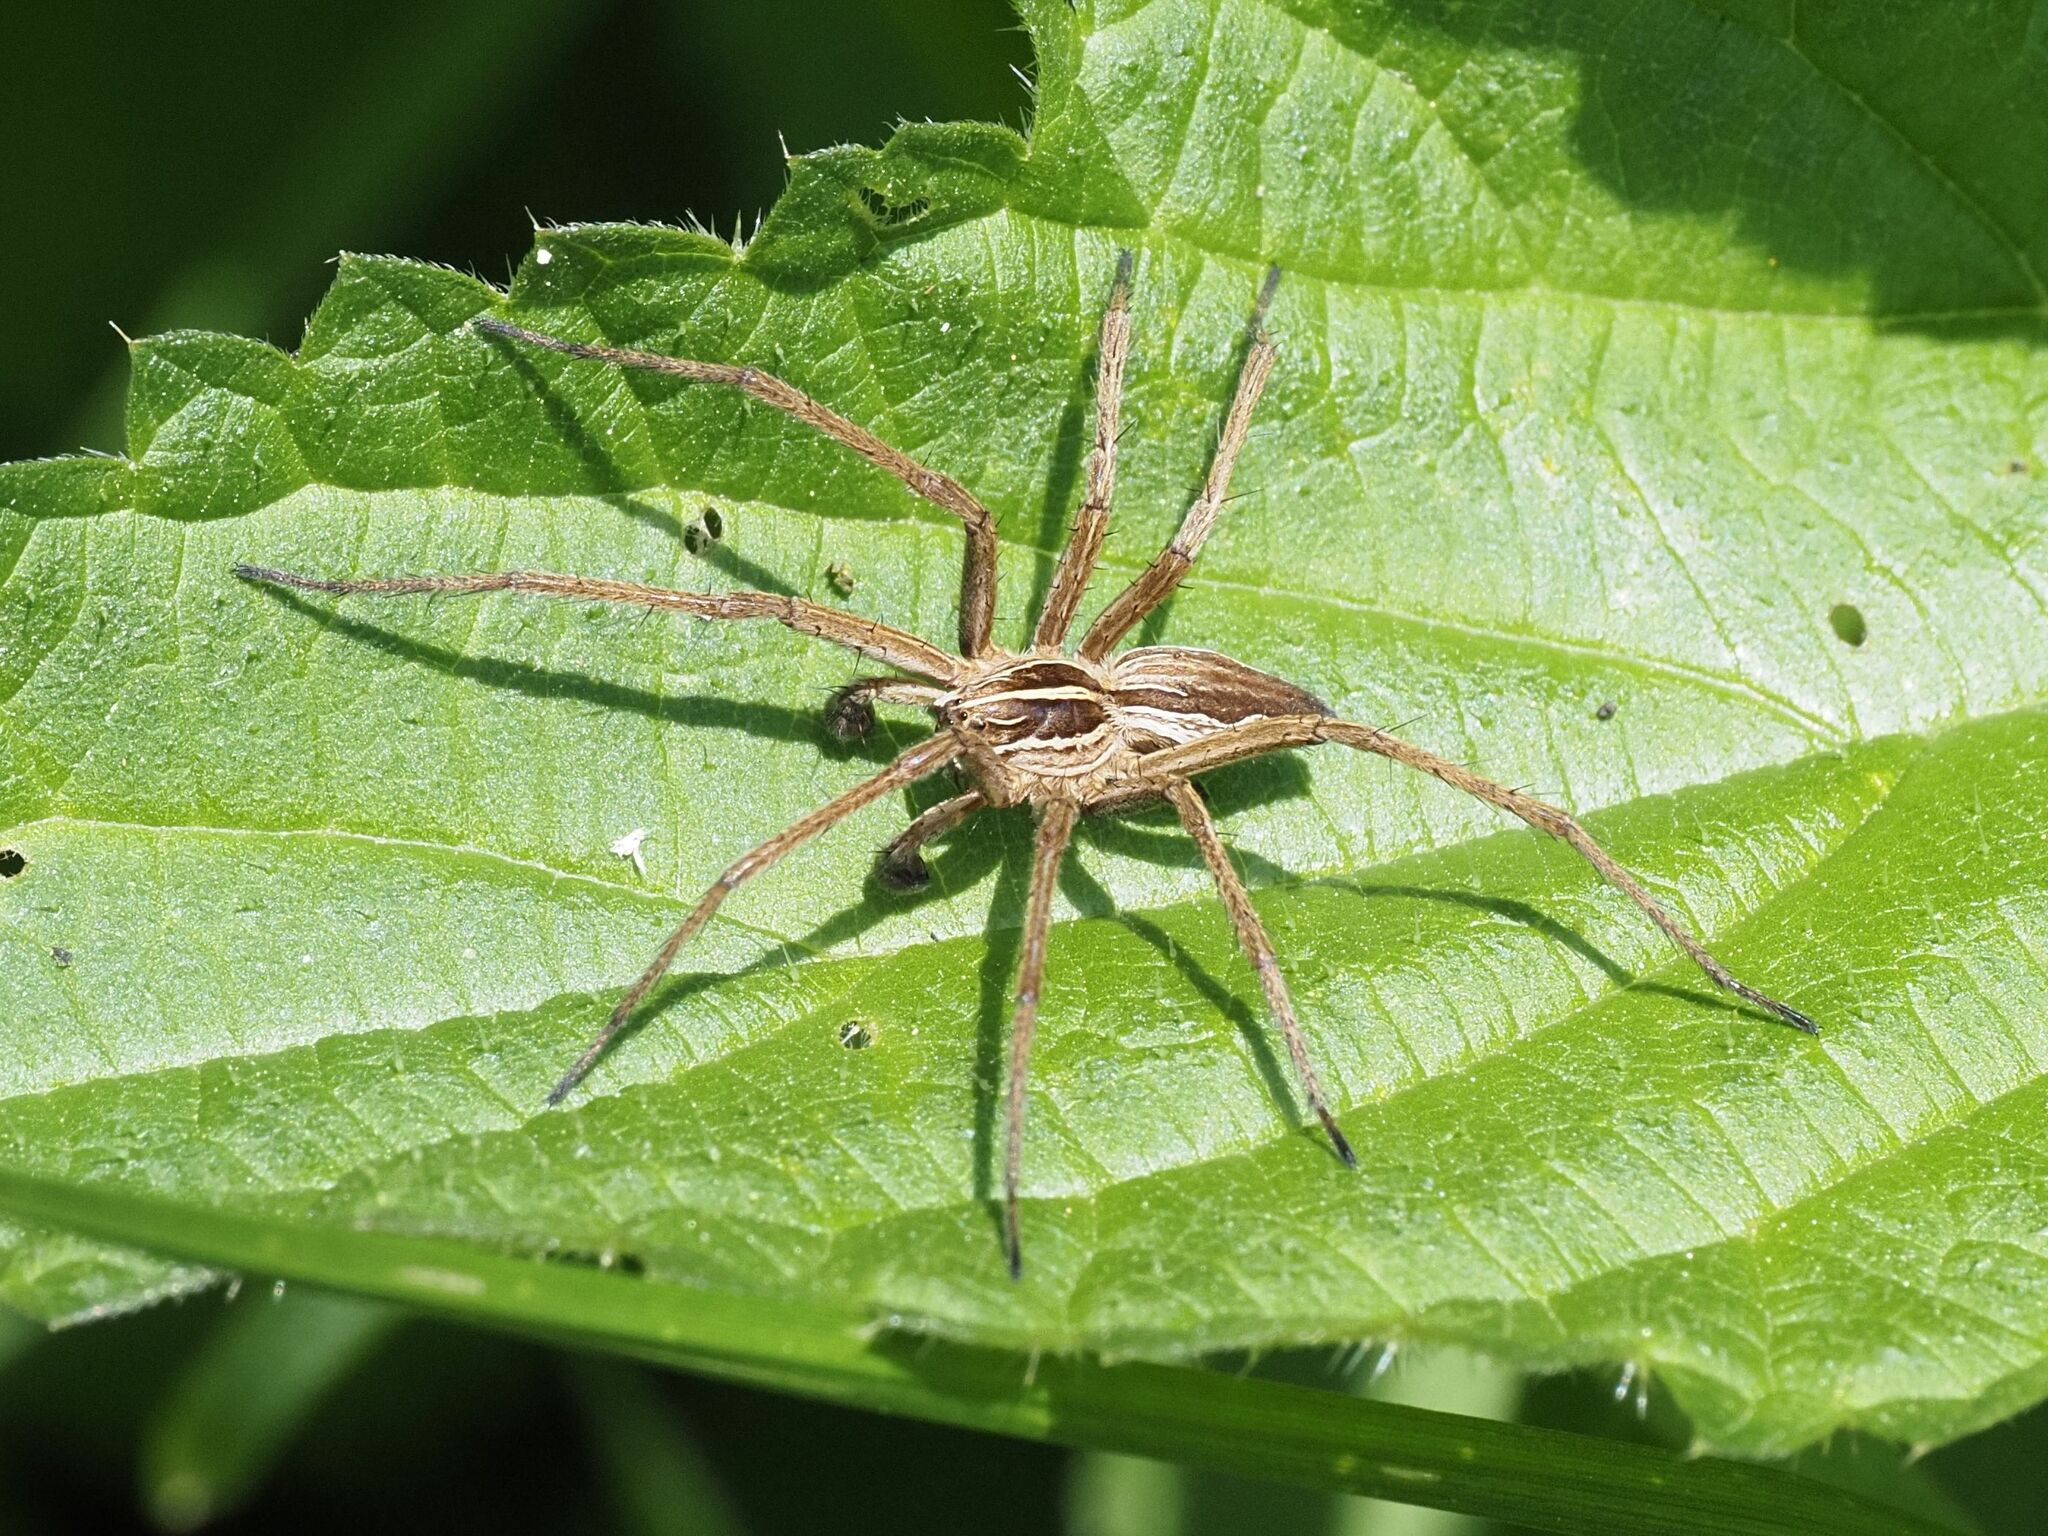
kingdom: Animalia
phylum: Arthropoda
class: Arachnida
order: Araneae
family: Pisauridae
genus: Pisaura
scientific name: Pisaura mirabilis
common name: Tent spider
